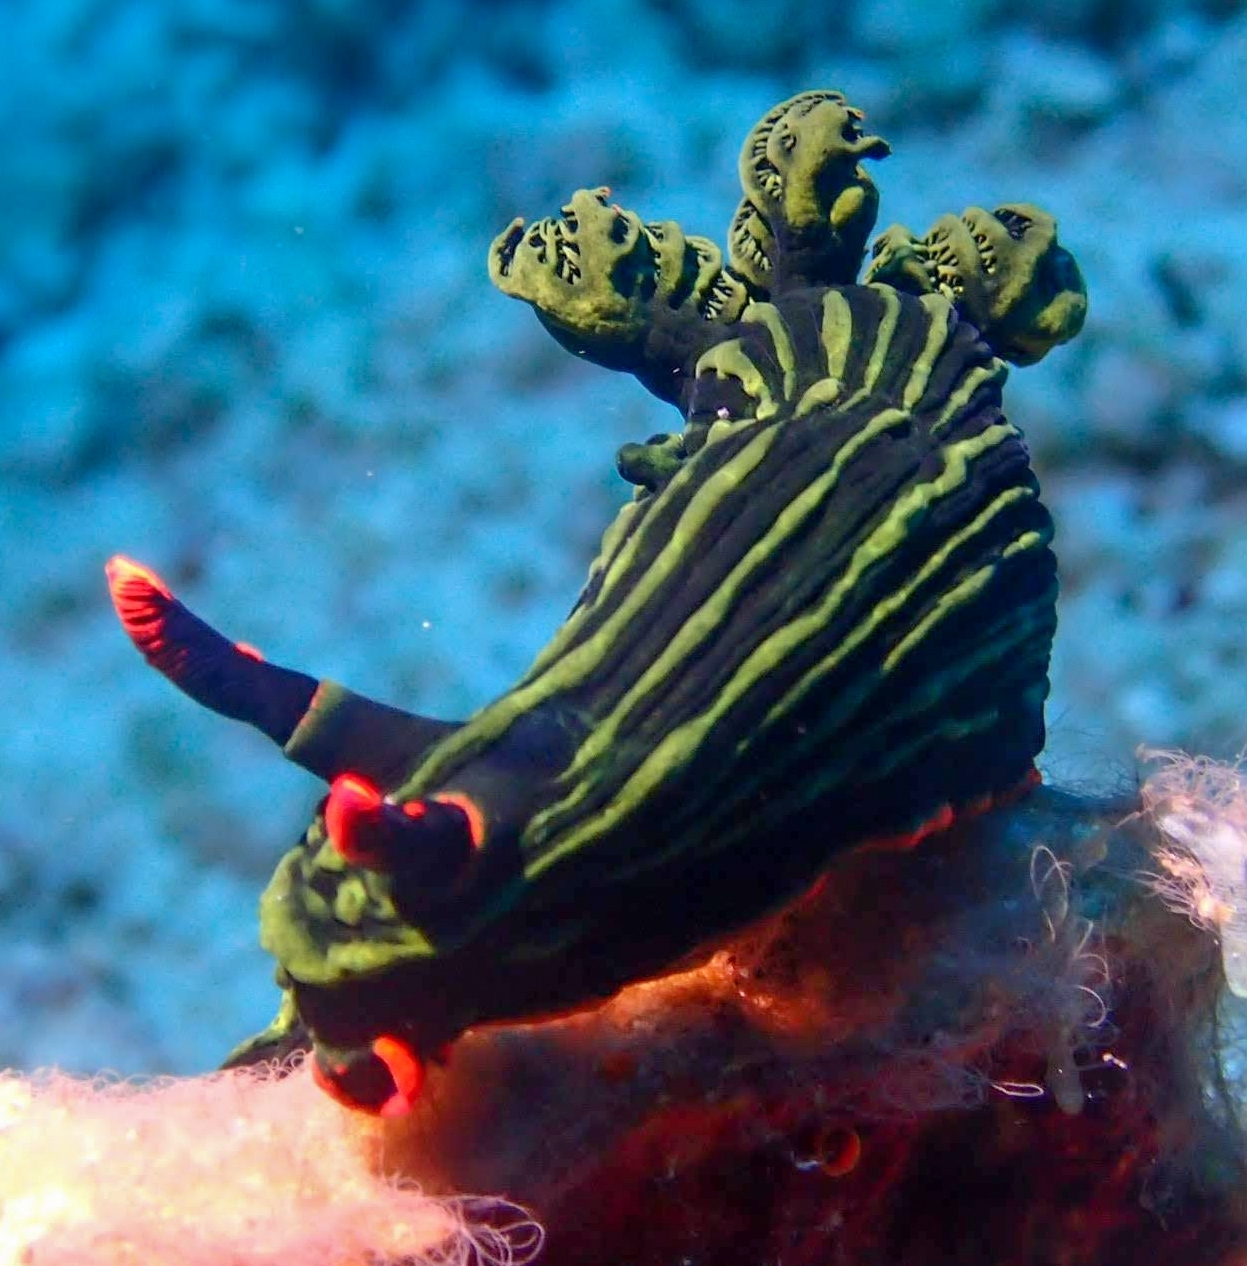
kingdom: Animalia
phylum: Mollusca
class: Gastropoda
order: Nudibranchia
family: Polyceridae
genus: Nembrotha
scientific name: Nembrotha kubaryana
